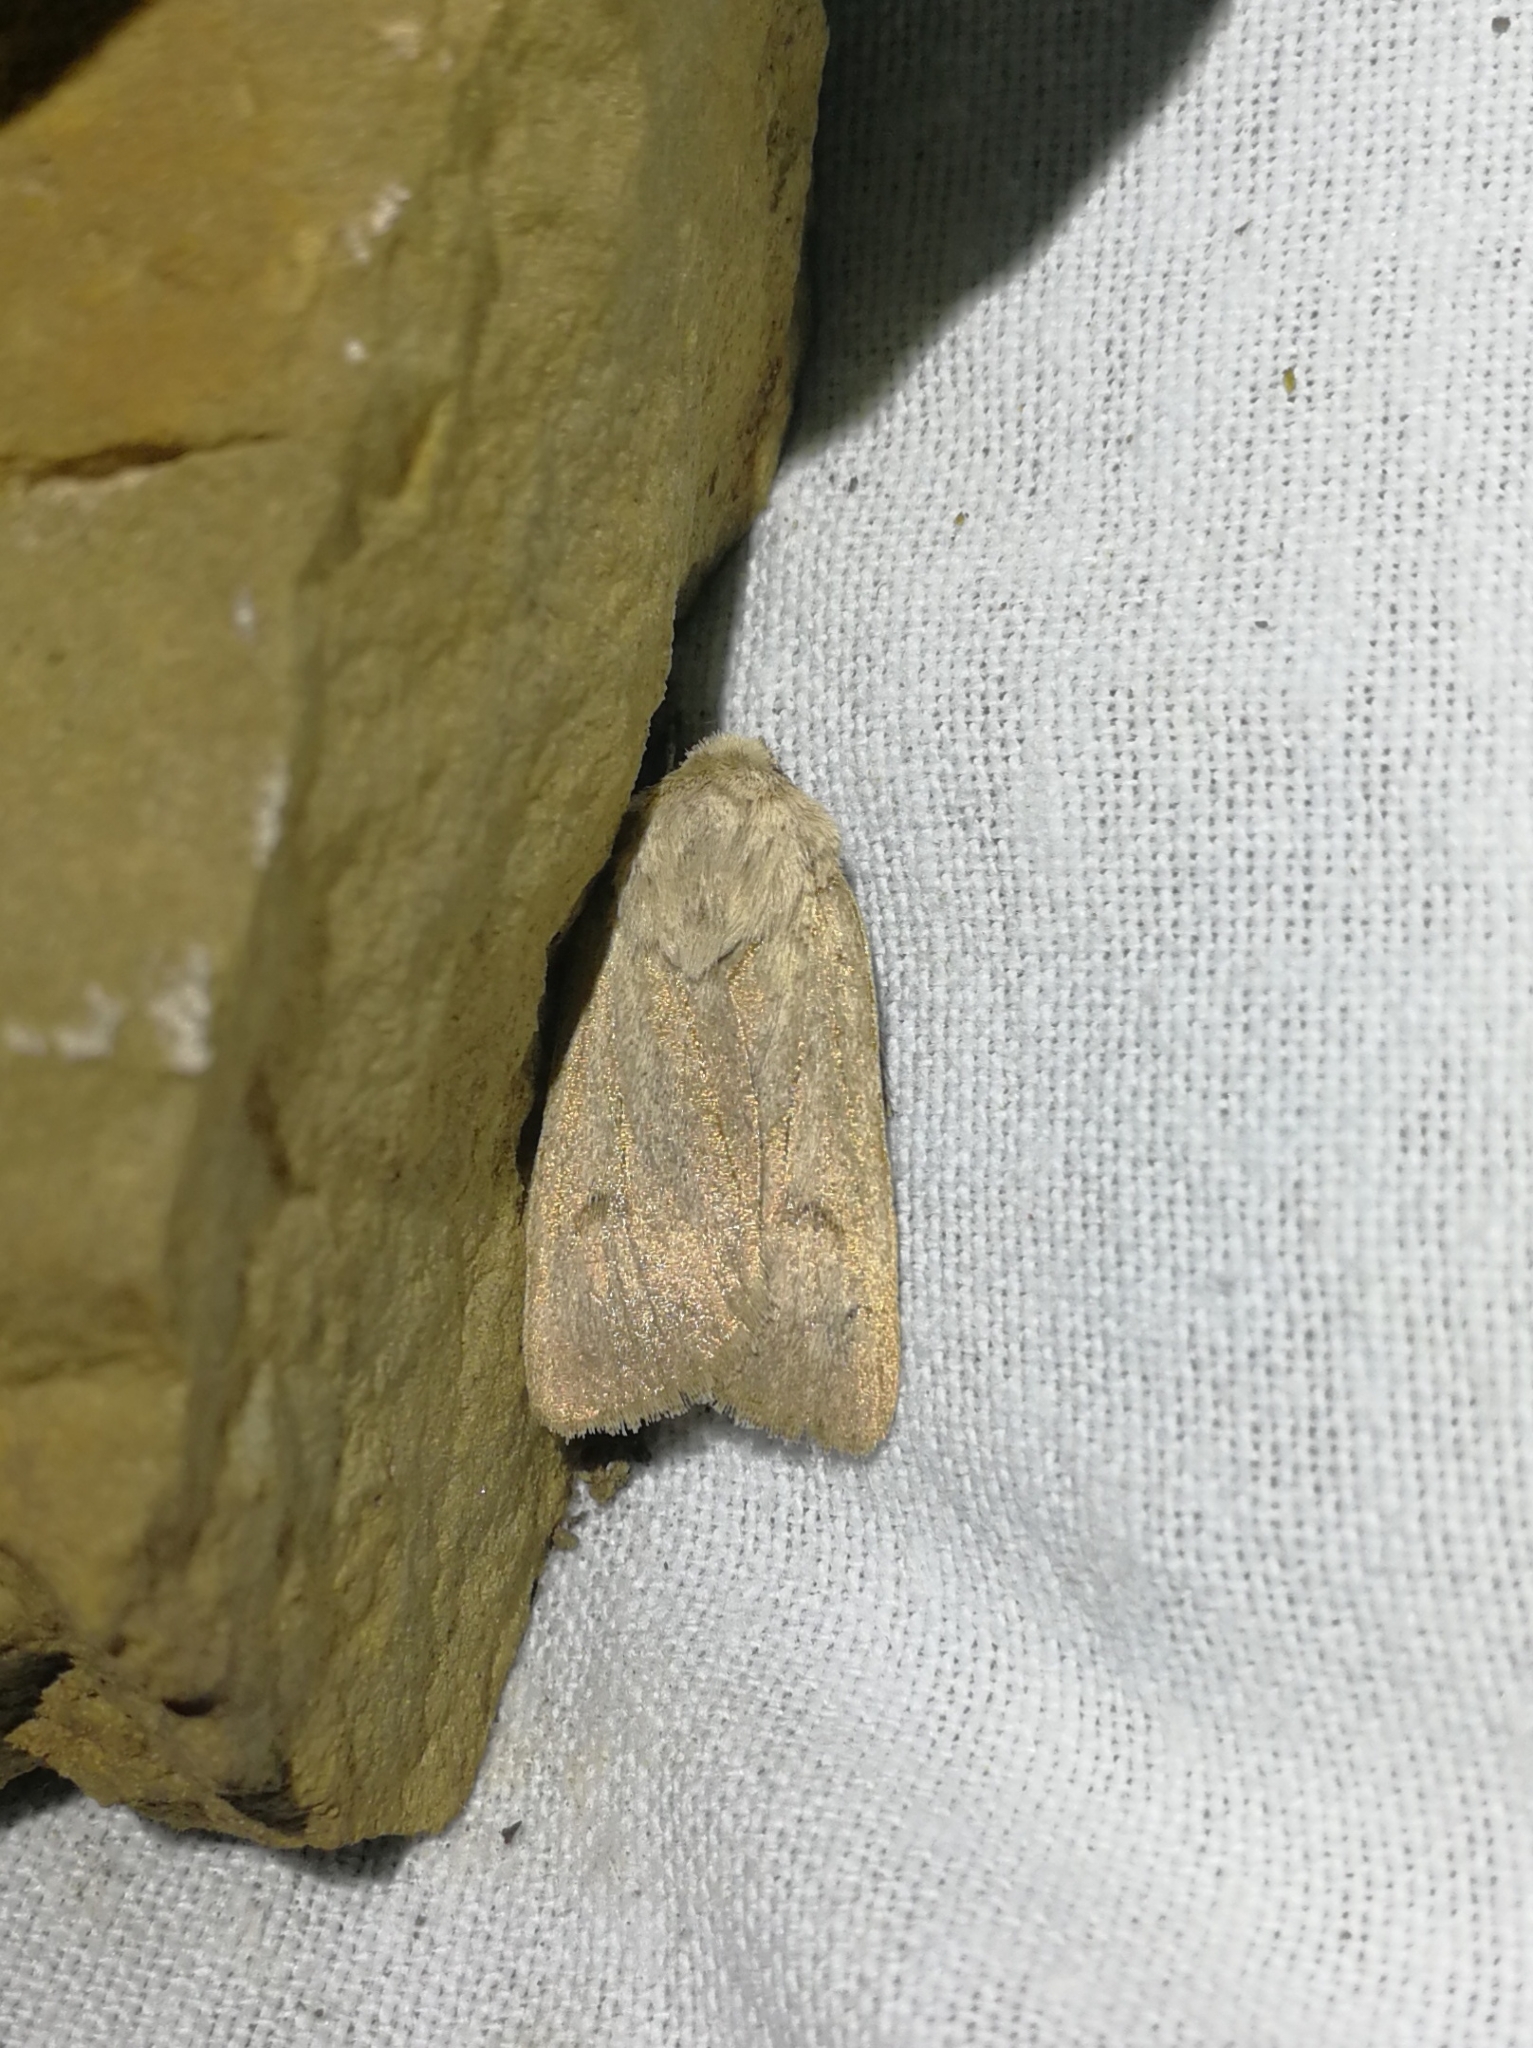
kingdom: Animalia
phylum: Arthropoda
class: Insecta
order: Lepidoptera
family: Noctuidae
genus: Agrotis
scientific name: Agrotis turatii
